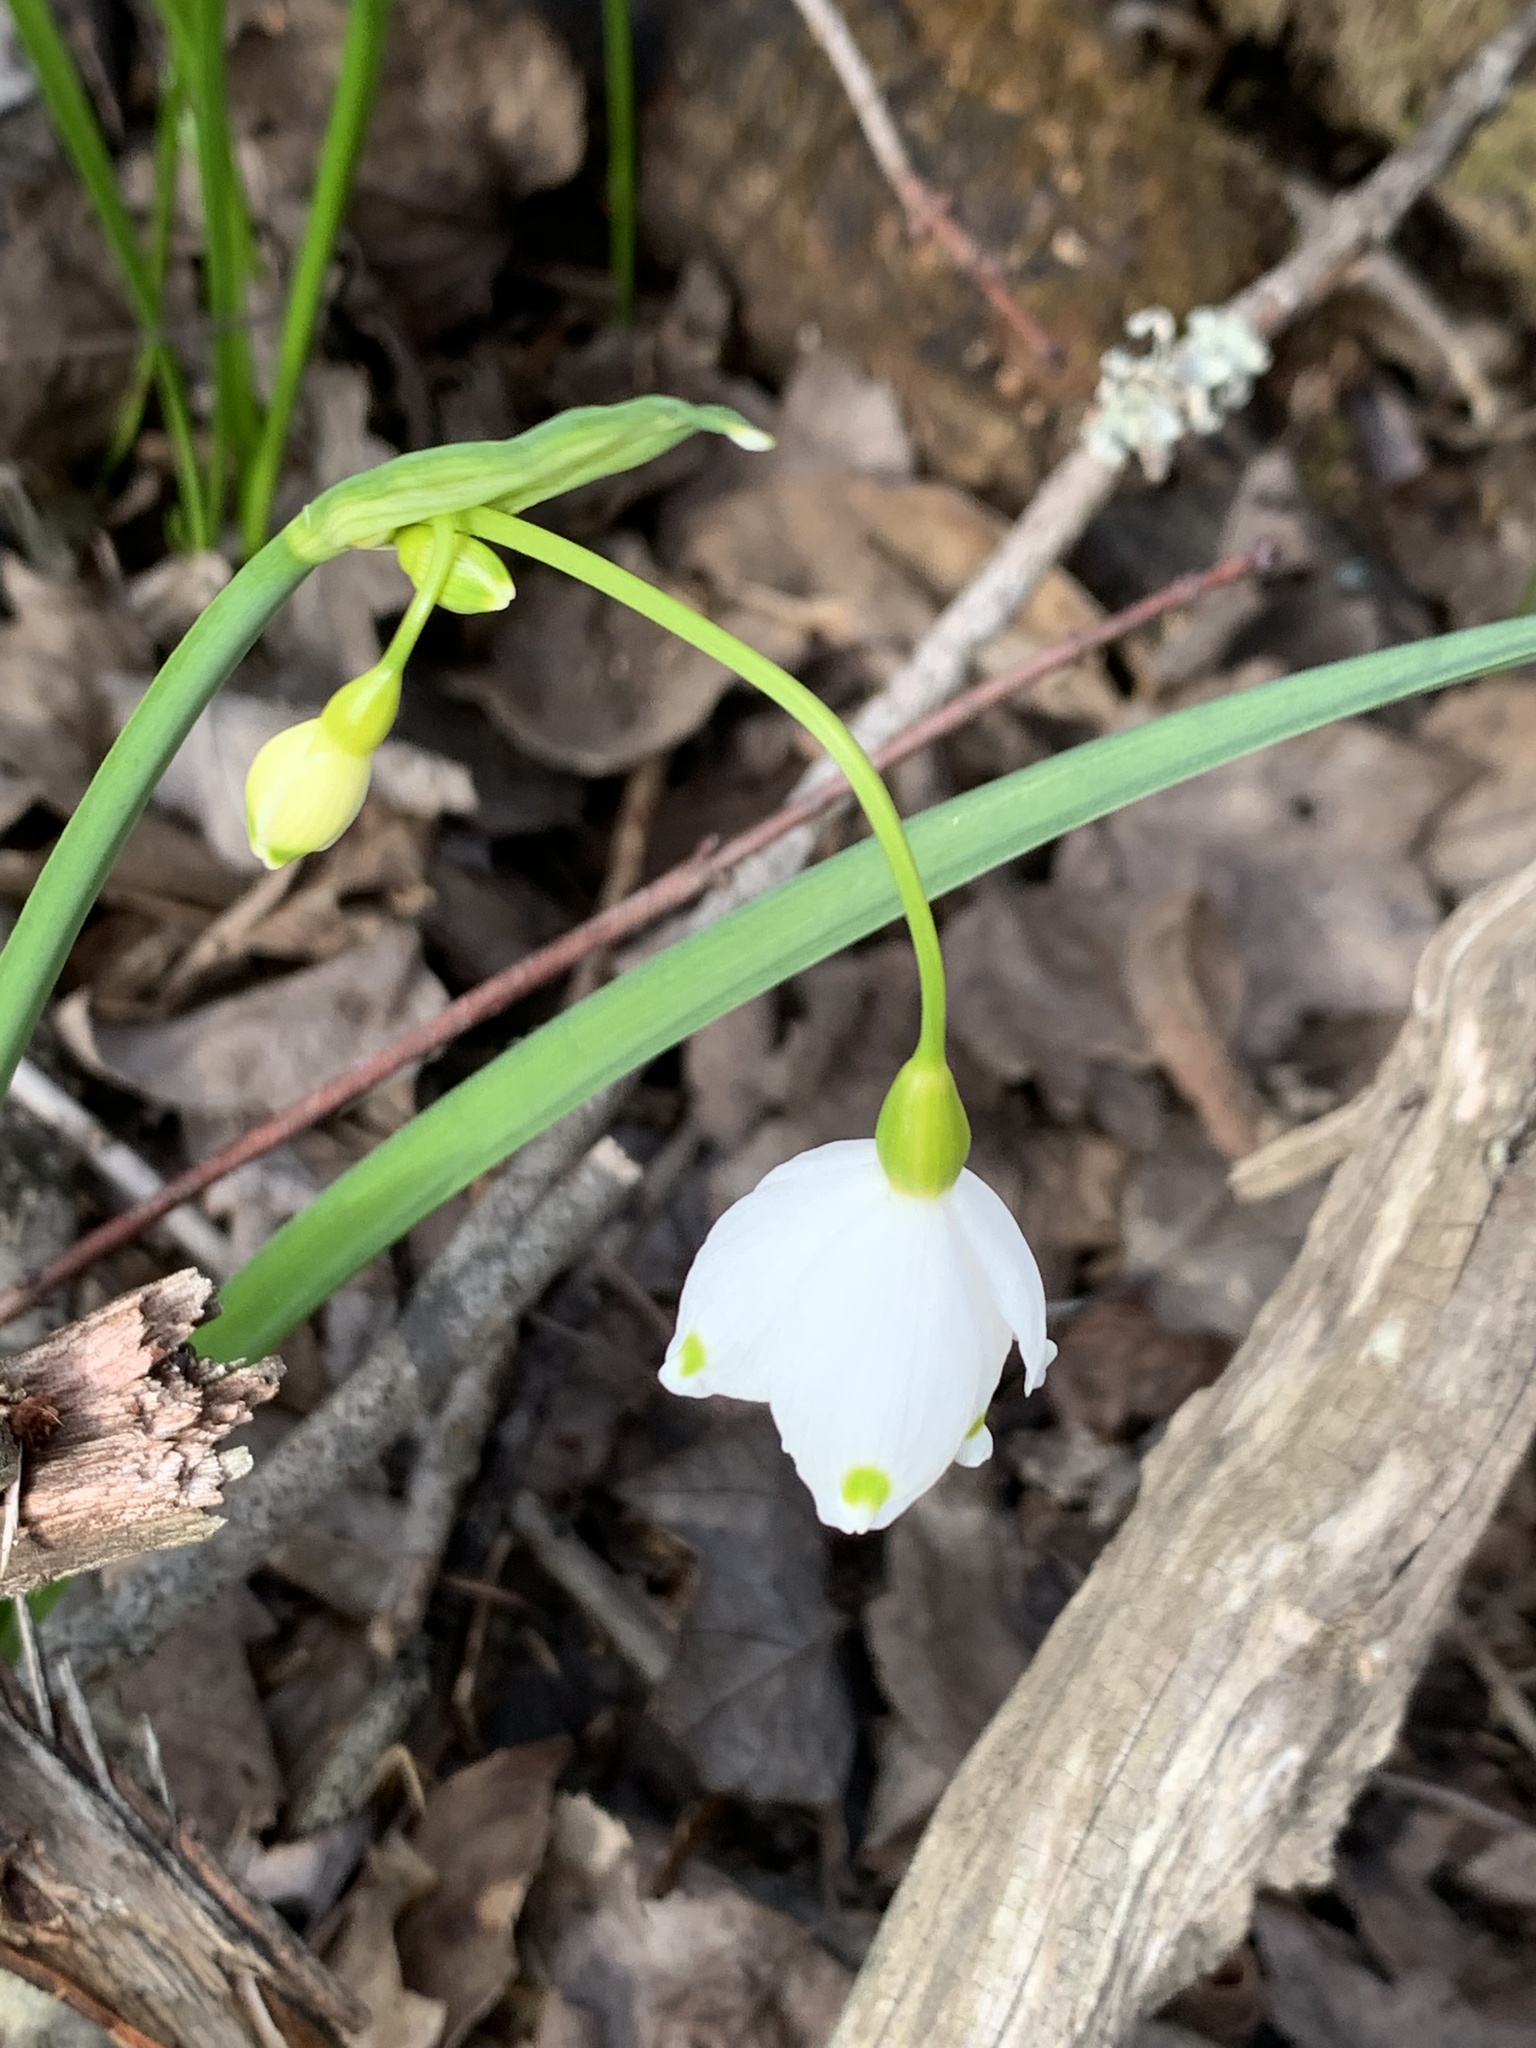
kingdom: Plantae
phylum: Tracheophyta
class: Liliopsida
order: Asparagales
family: Amaryllidaceae
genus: Leucojum
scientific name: Leucojum aestivum
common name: Summer snowflake
